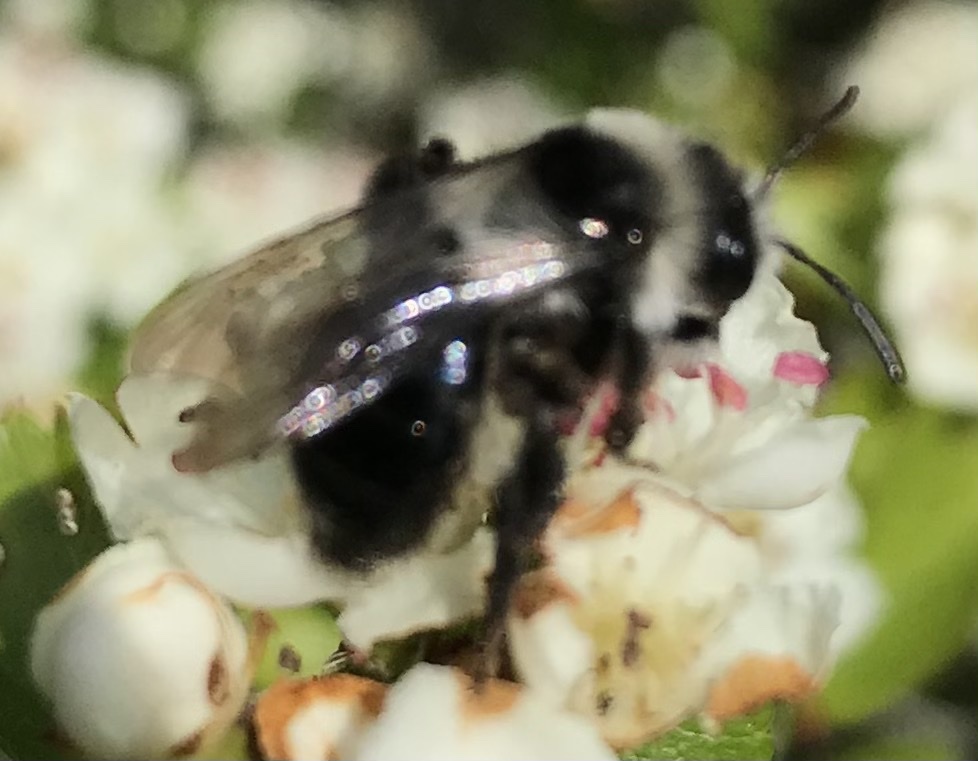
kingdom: Animalia
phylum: Arthropoda
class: Insecta
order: Hymenoptera
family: Andrenidae
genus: Andrena
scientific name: Andrena cineraria
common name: Ashy mining bee
